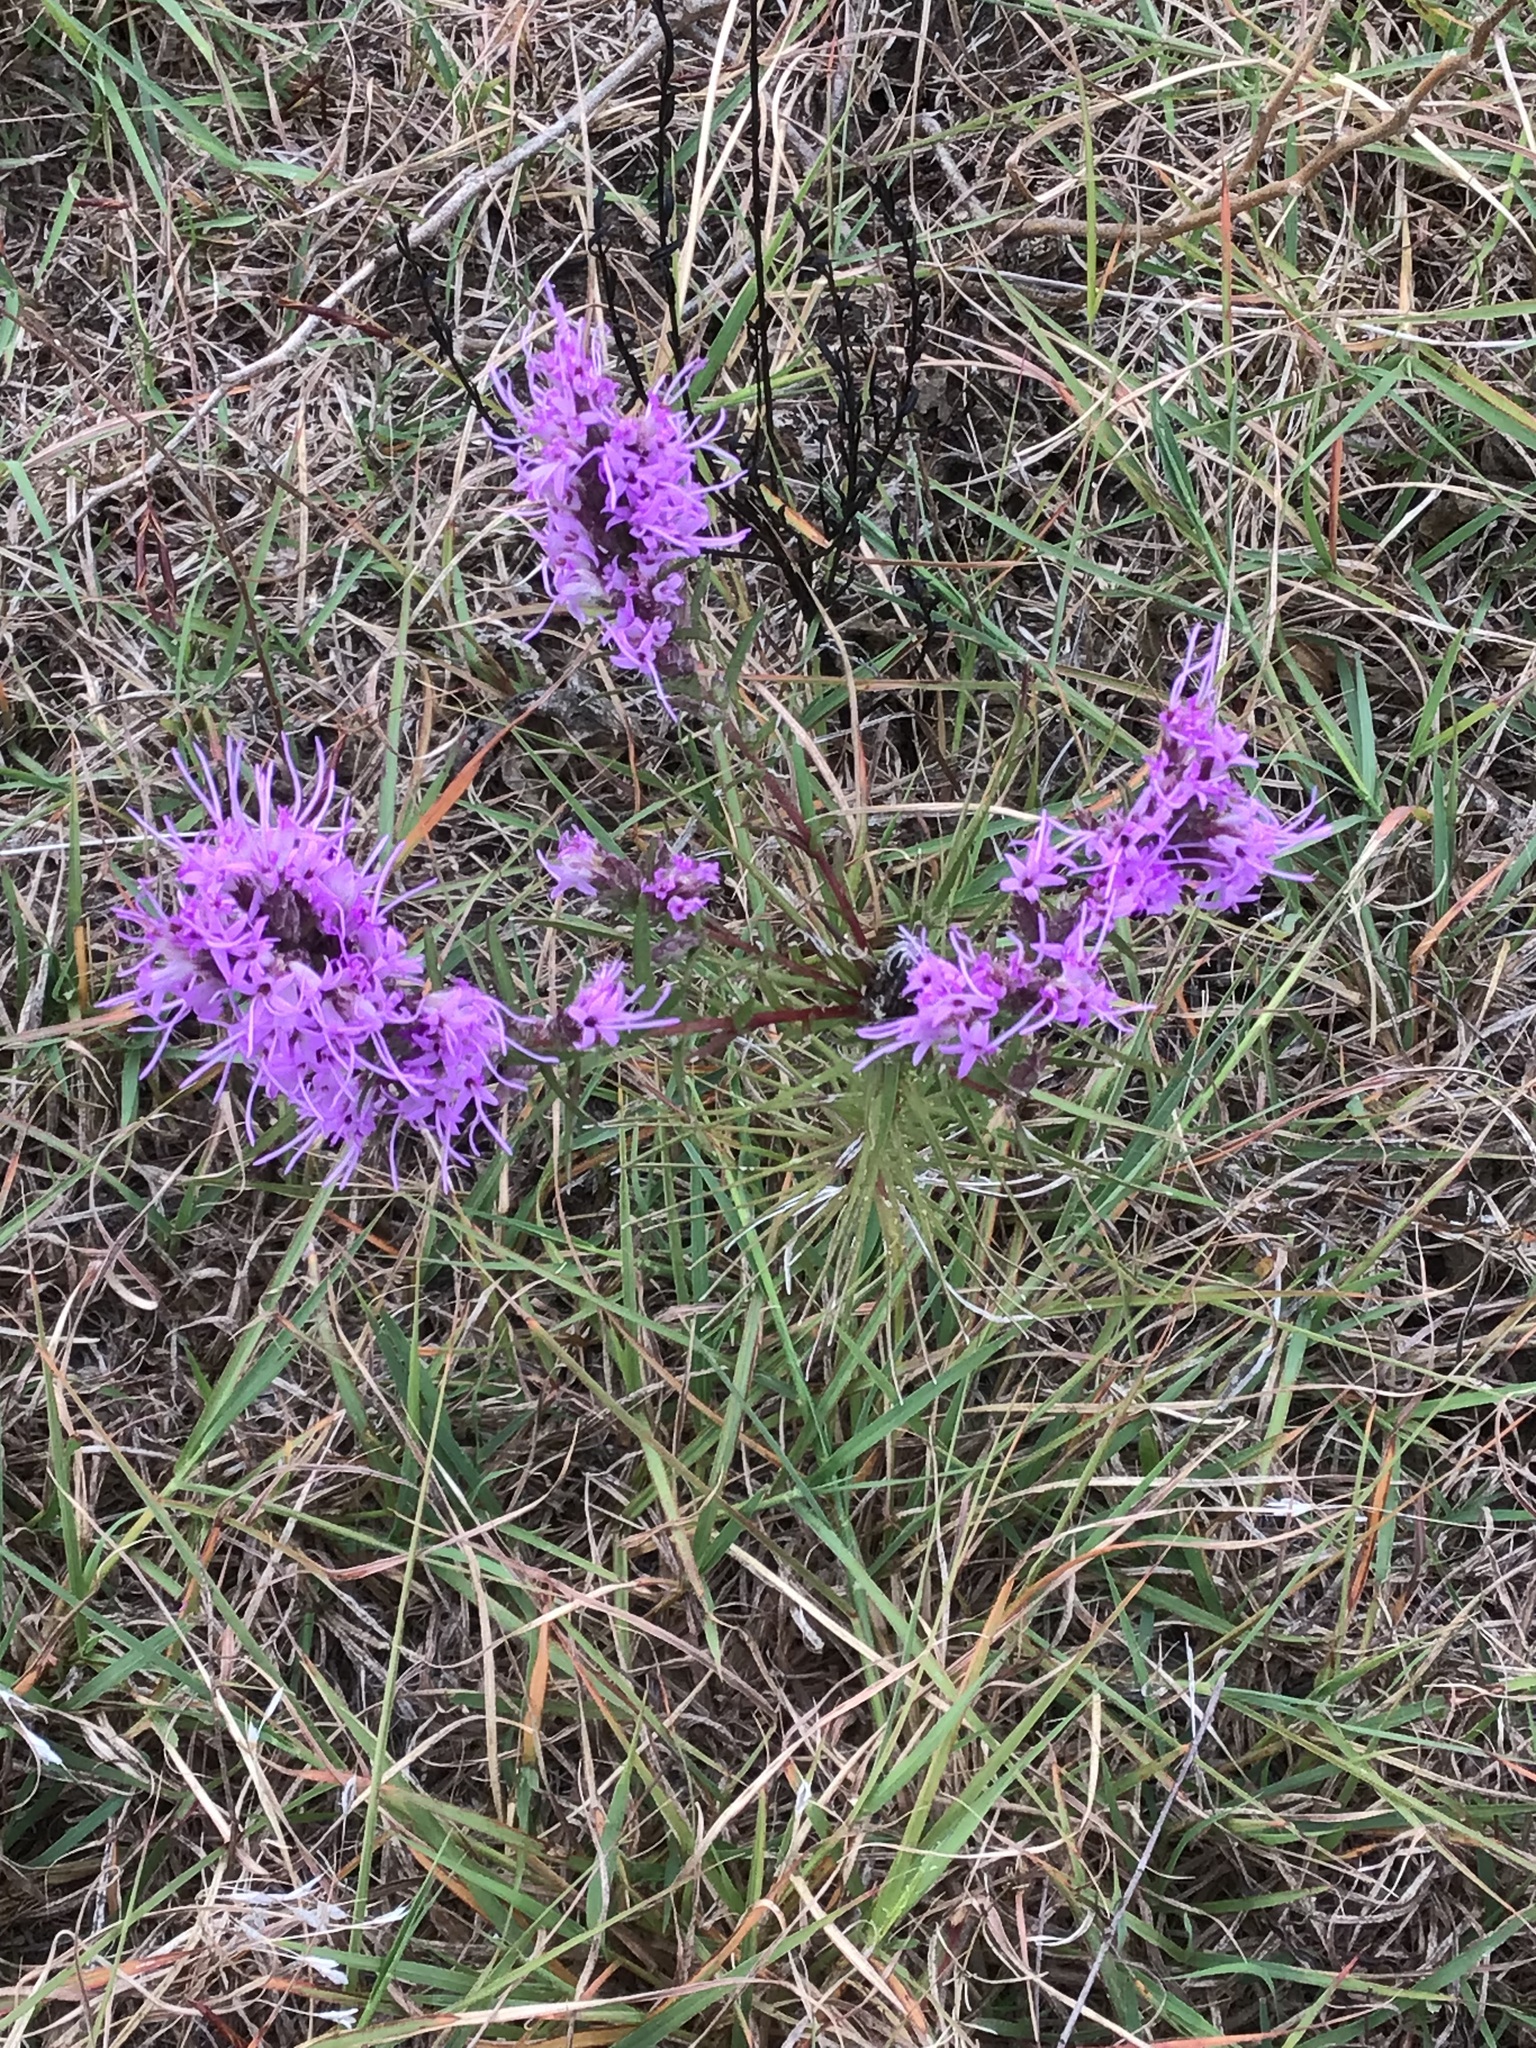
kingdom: Plantae
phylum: Tracheophyta
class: Magnoliopsida
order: Asterales
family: Asteraceae
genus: Liatris
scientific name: Liatris punctata
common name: Dotted gayfeather
